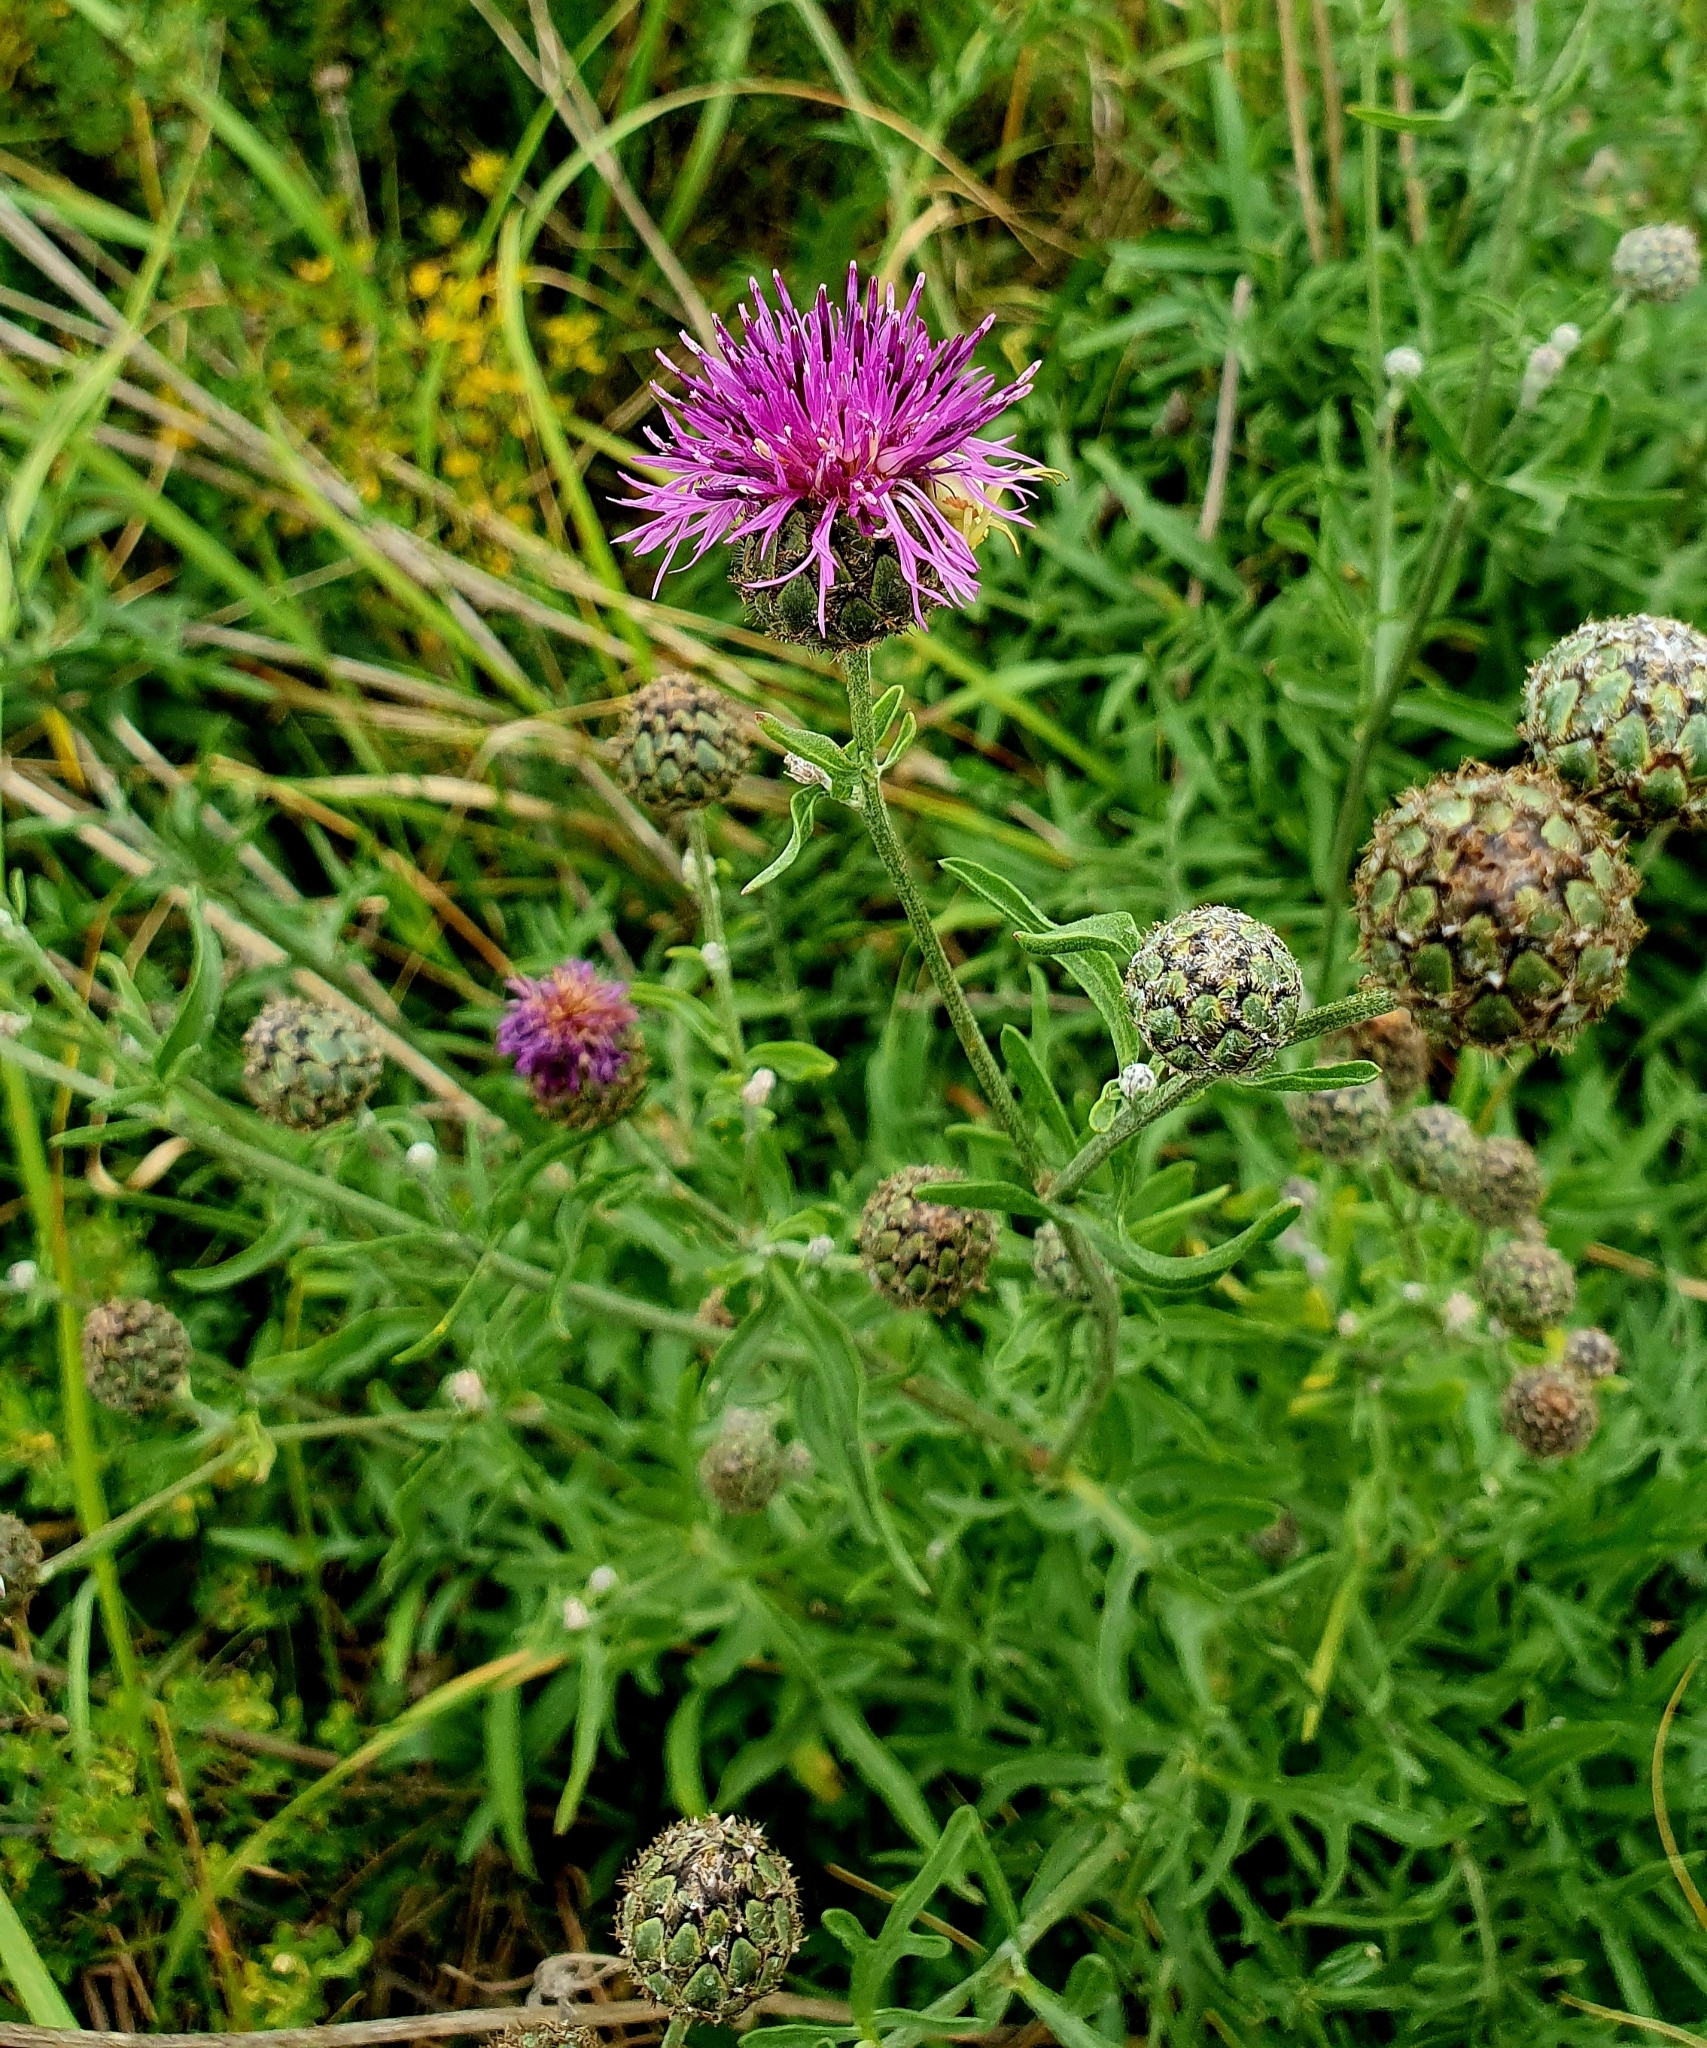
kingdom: Plantae
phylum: Tracheophyta
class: Magnoliopsida
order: Asterales
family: Asteraceae
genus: Centaurea
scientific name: Centaurea scabiosa
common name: Greater knapweed
